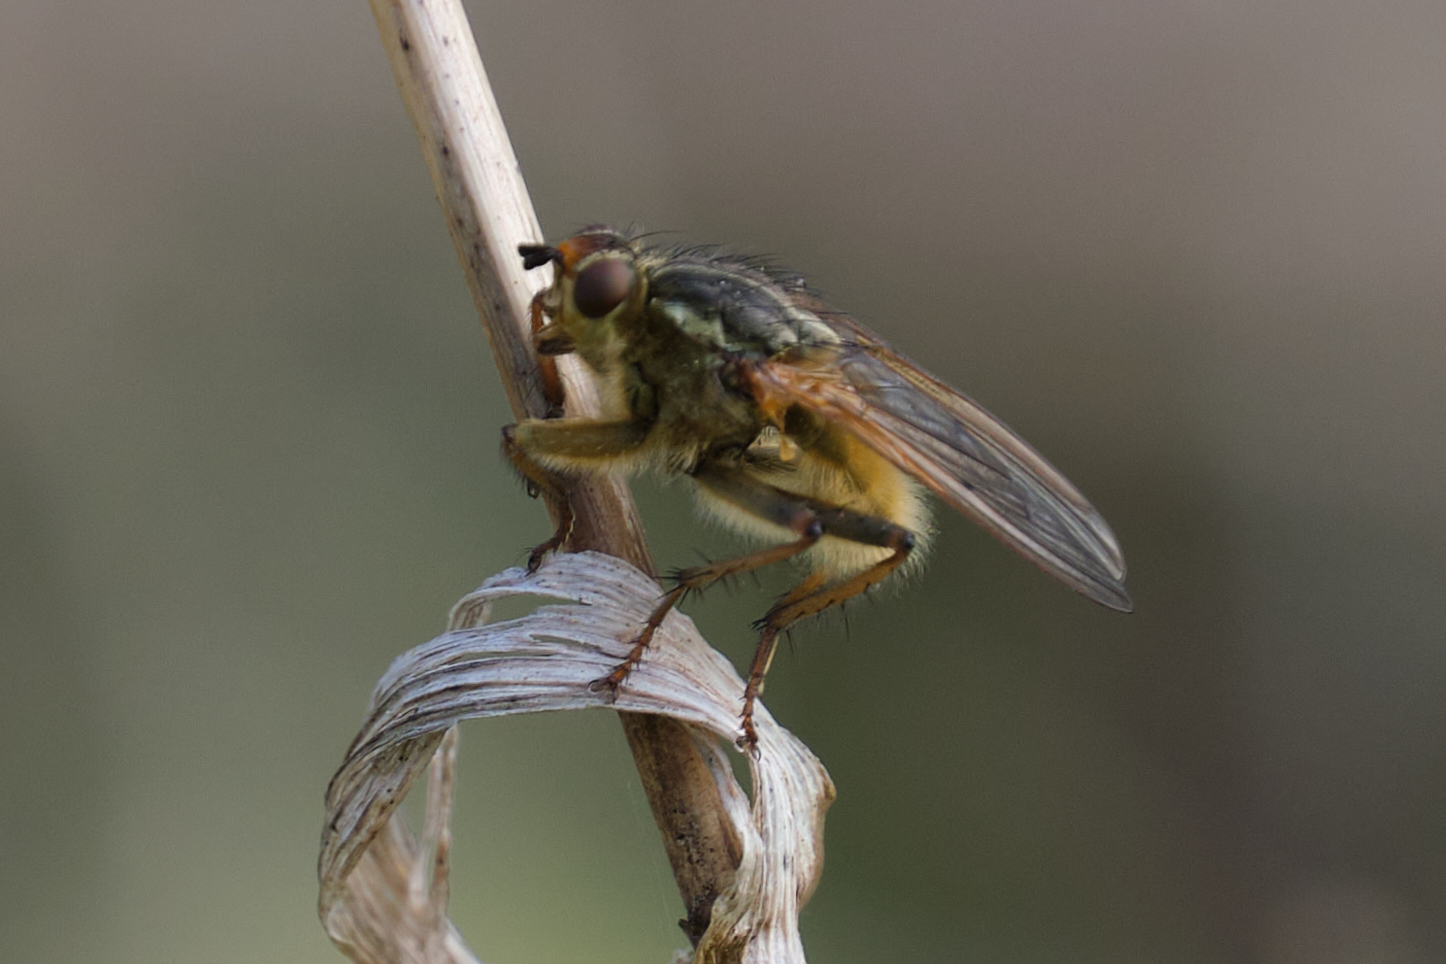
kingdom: Animalia
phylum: Arthropoda
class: Insecta
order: Diptera
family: Scathophagidae
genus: Scathophaga
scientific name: Scathophaga stercoraria
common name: Yellow dung fly
